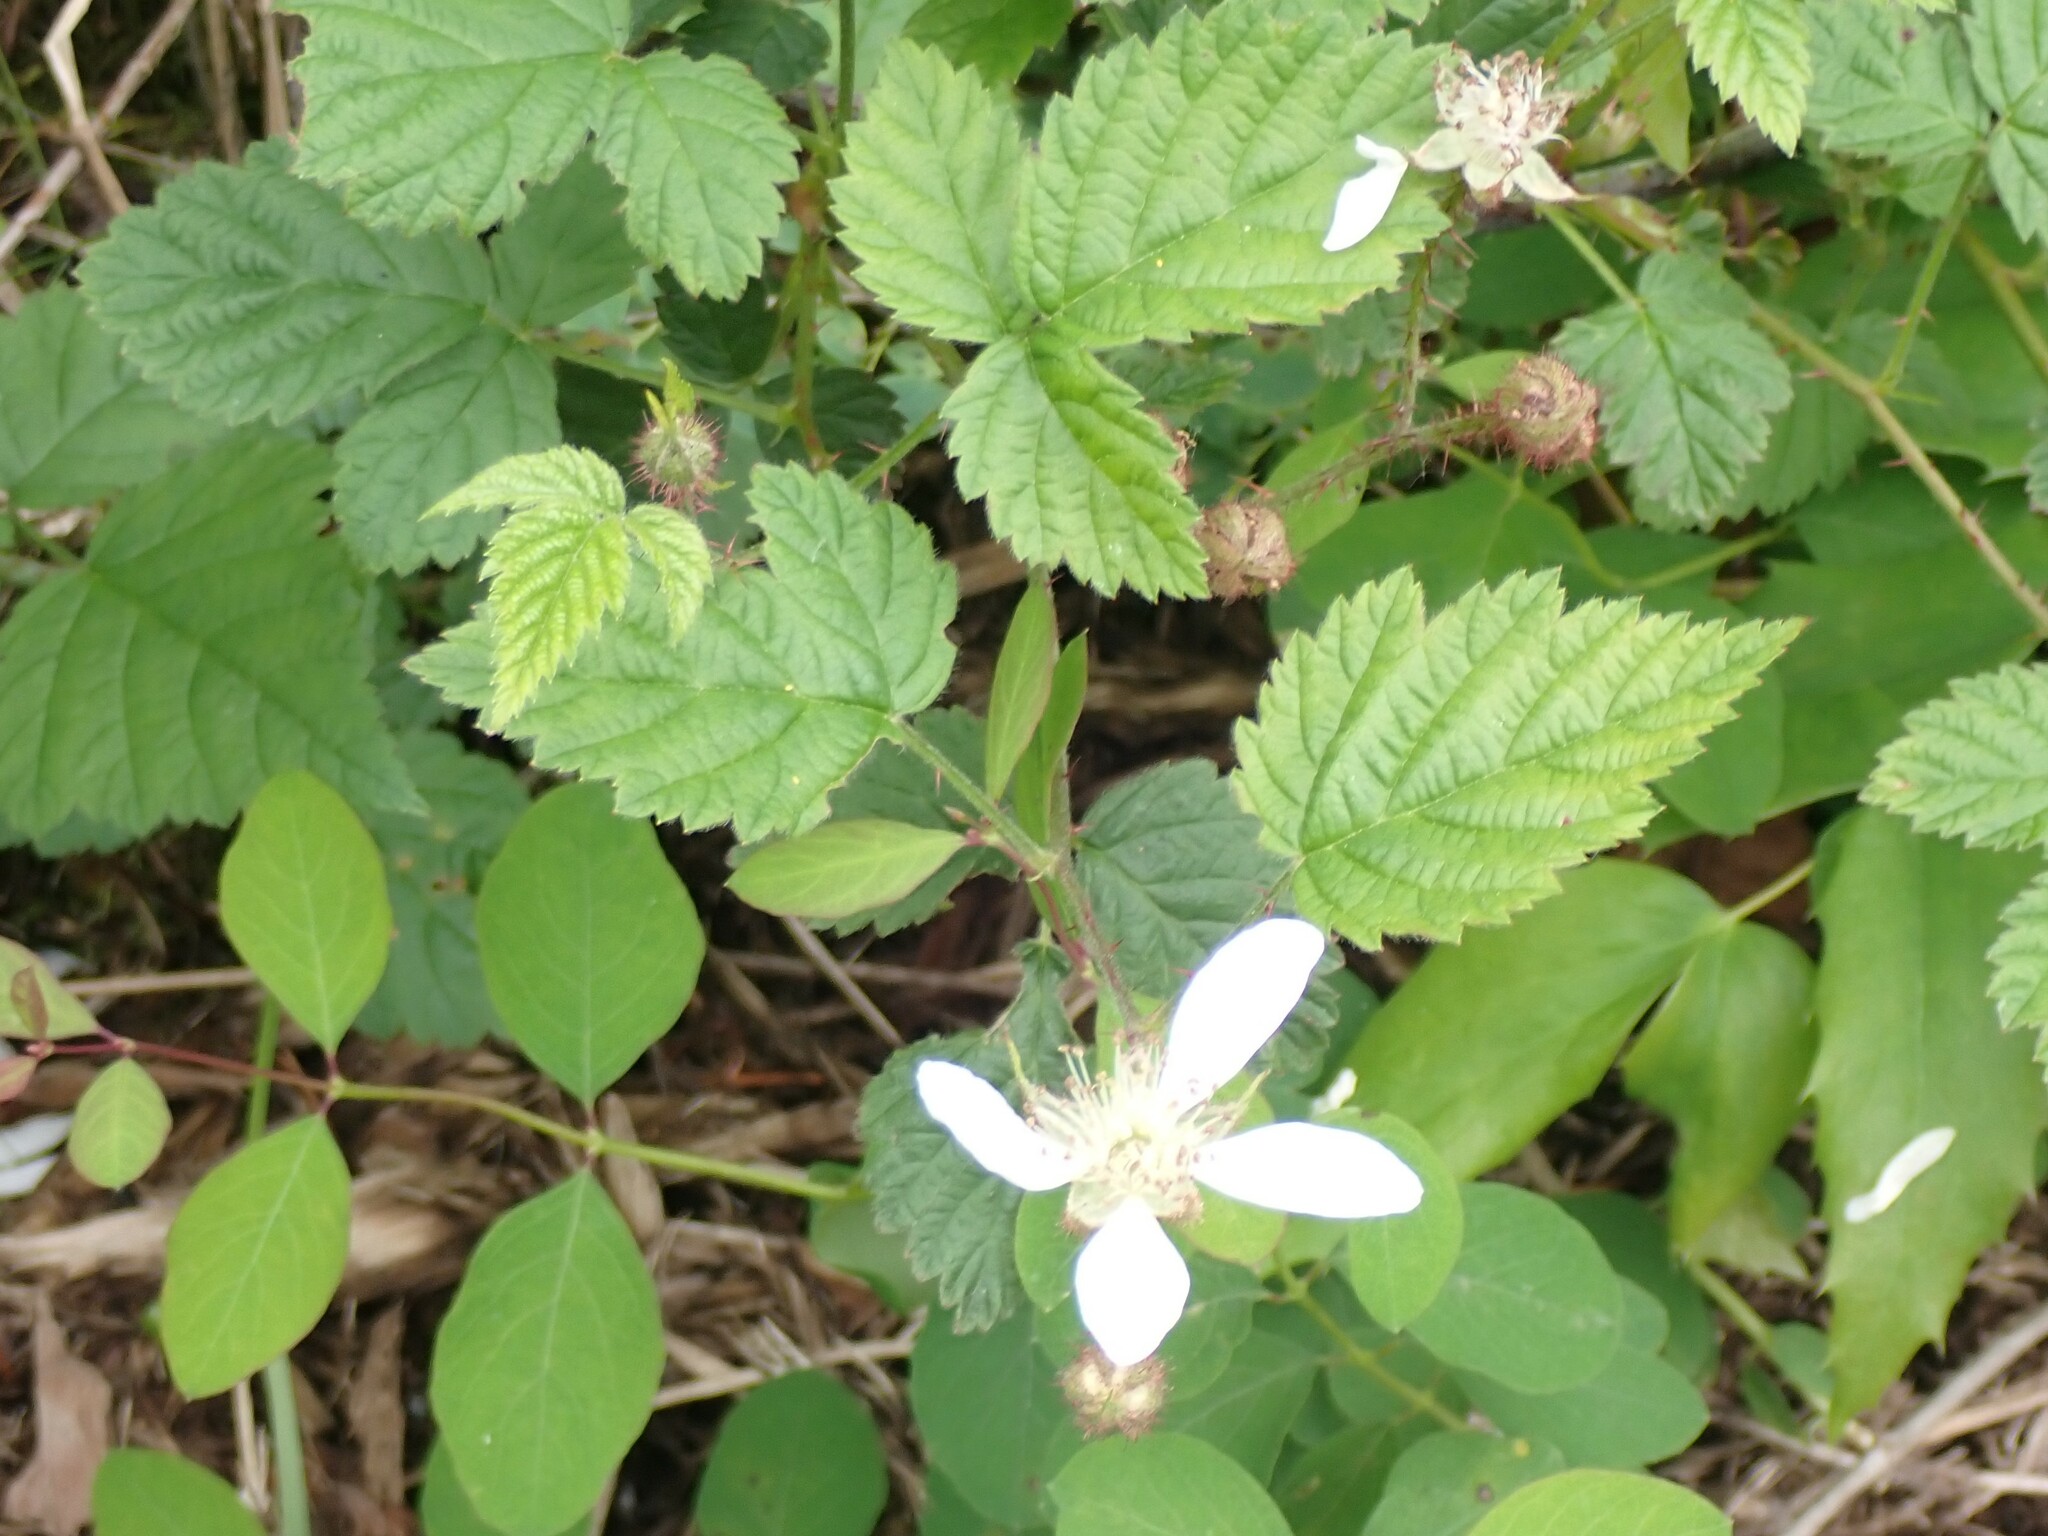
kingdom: Plantae
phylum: Tracheophyta
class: Magnoliopsida
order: Rosales
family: Rosaceae
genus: Rubus
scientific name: Rubus ursinus
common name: Pacific blackberry
